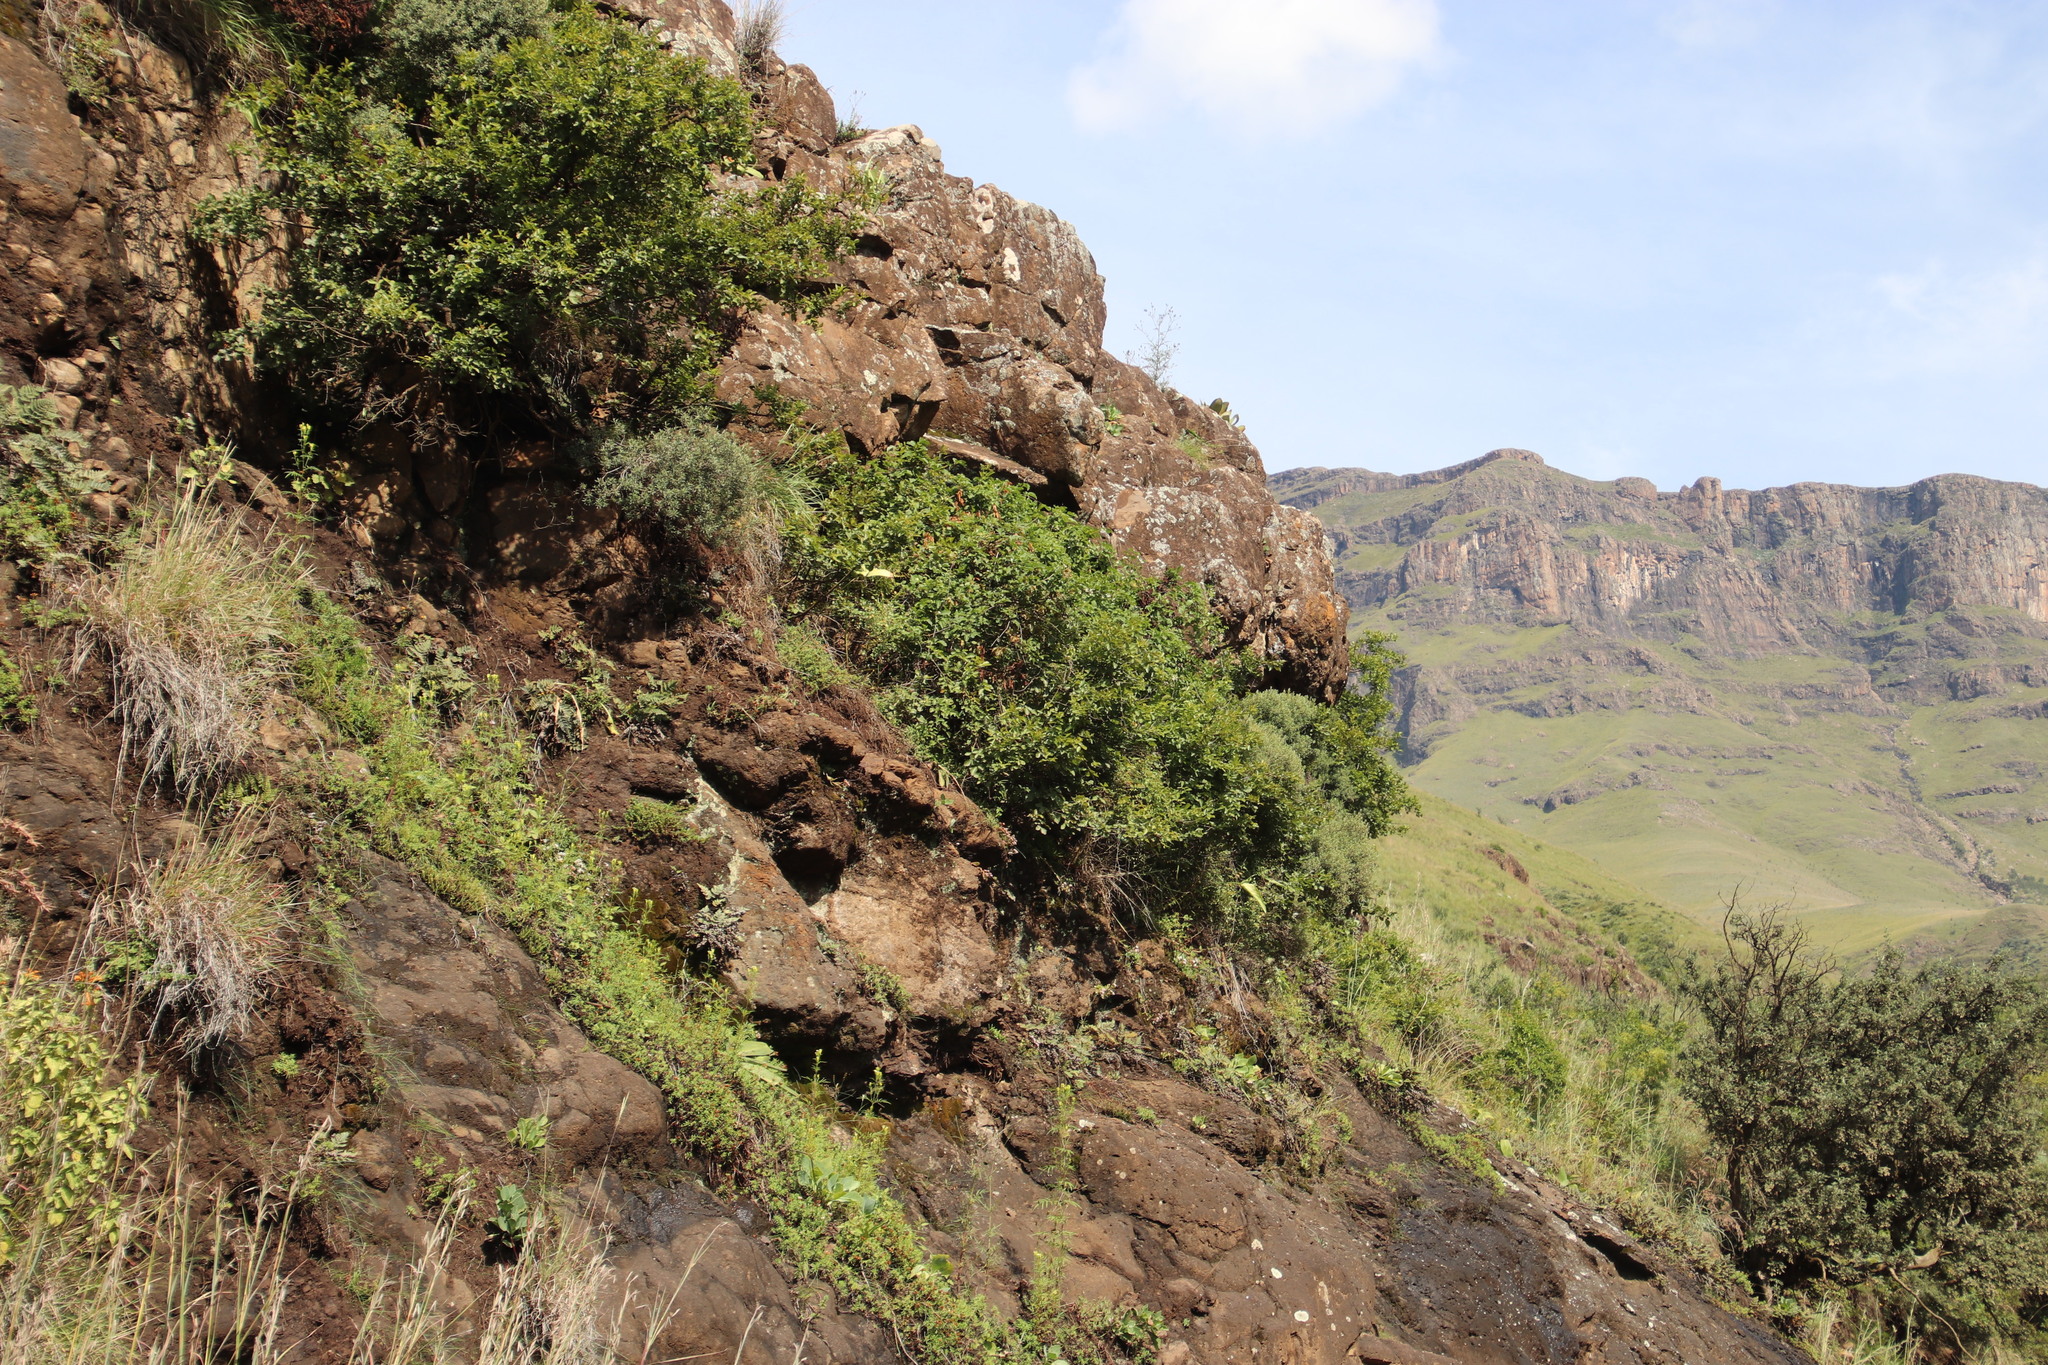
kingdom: Plantae
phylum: Tracheophyta
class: Magnoliopsida
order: Ranunculales
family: Ranunculaceae
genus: Clematis
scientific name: Clematis brachiata
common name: Traveler's-joy
